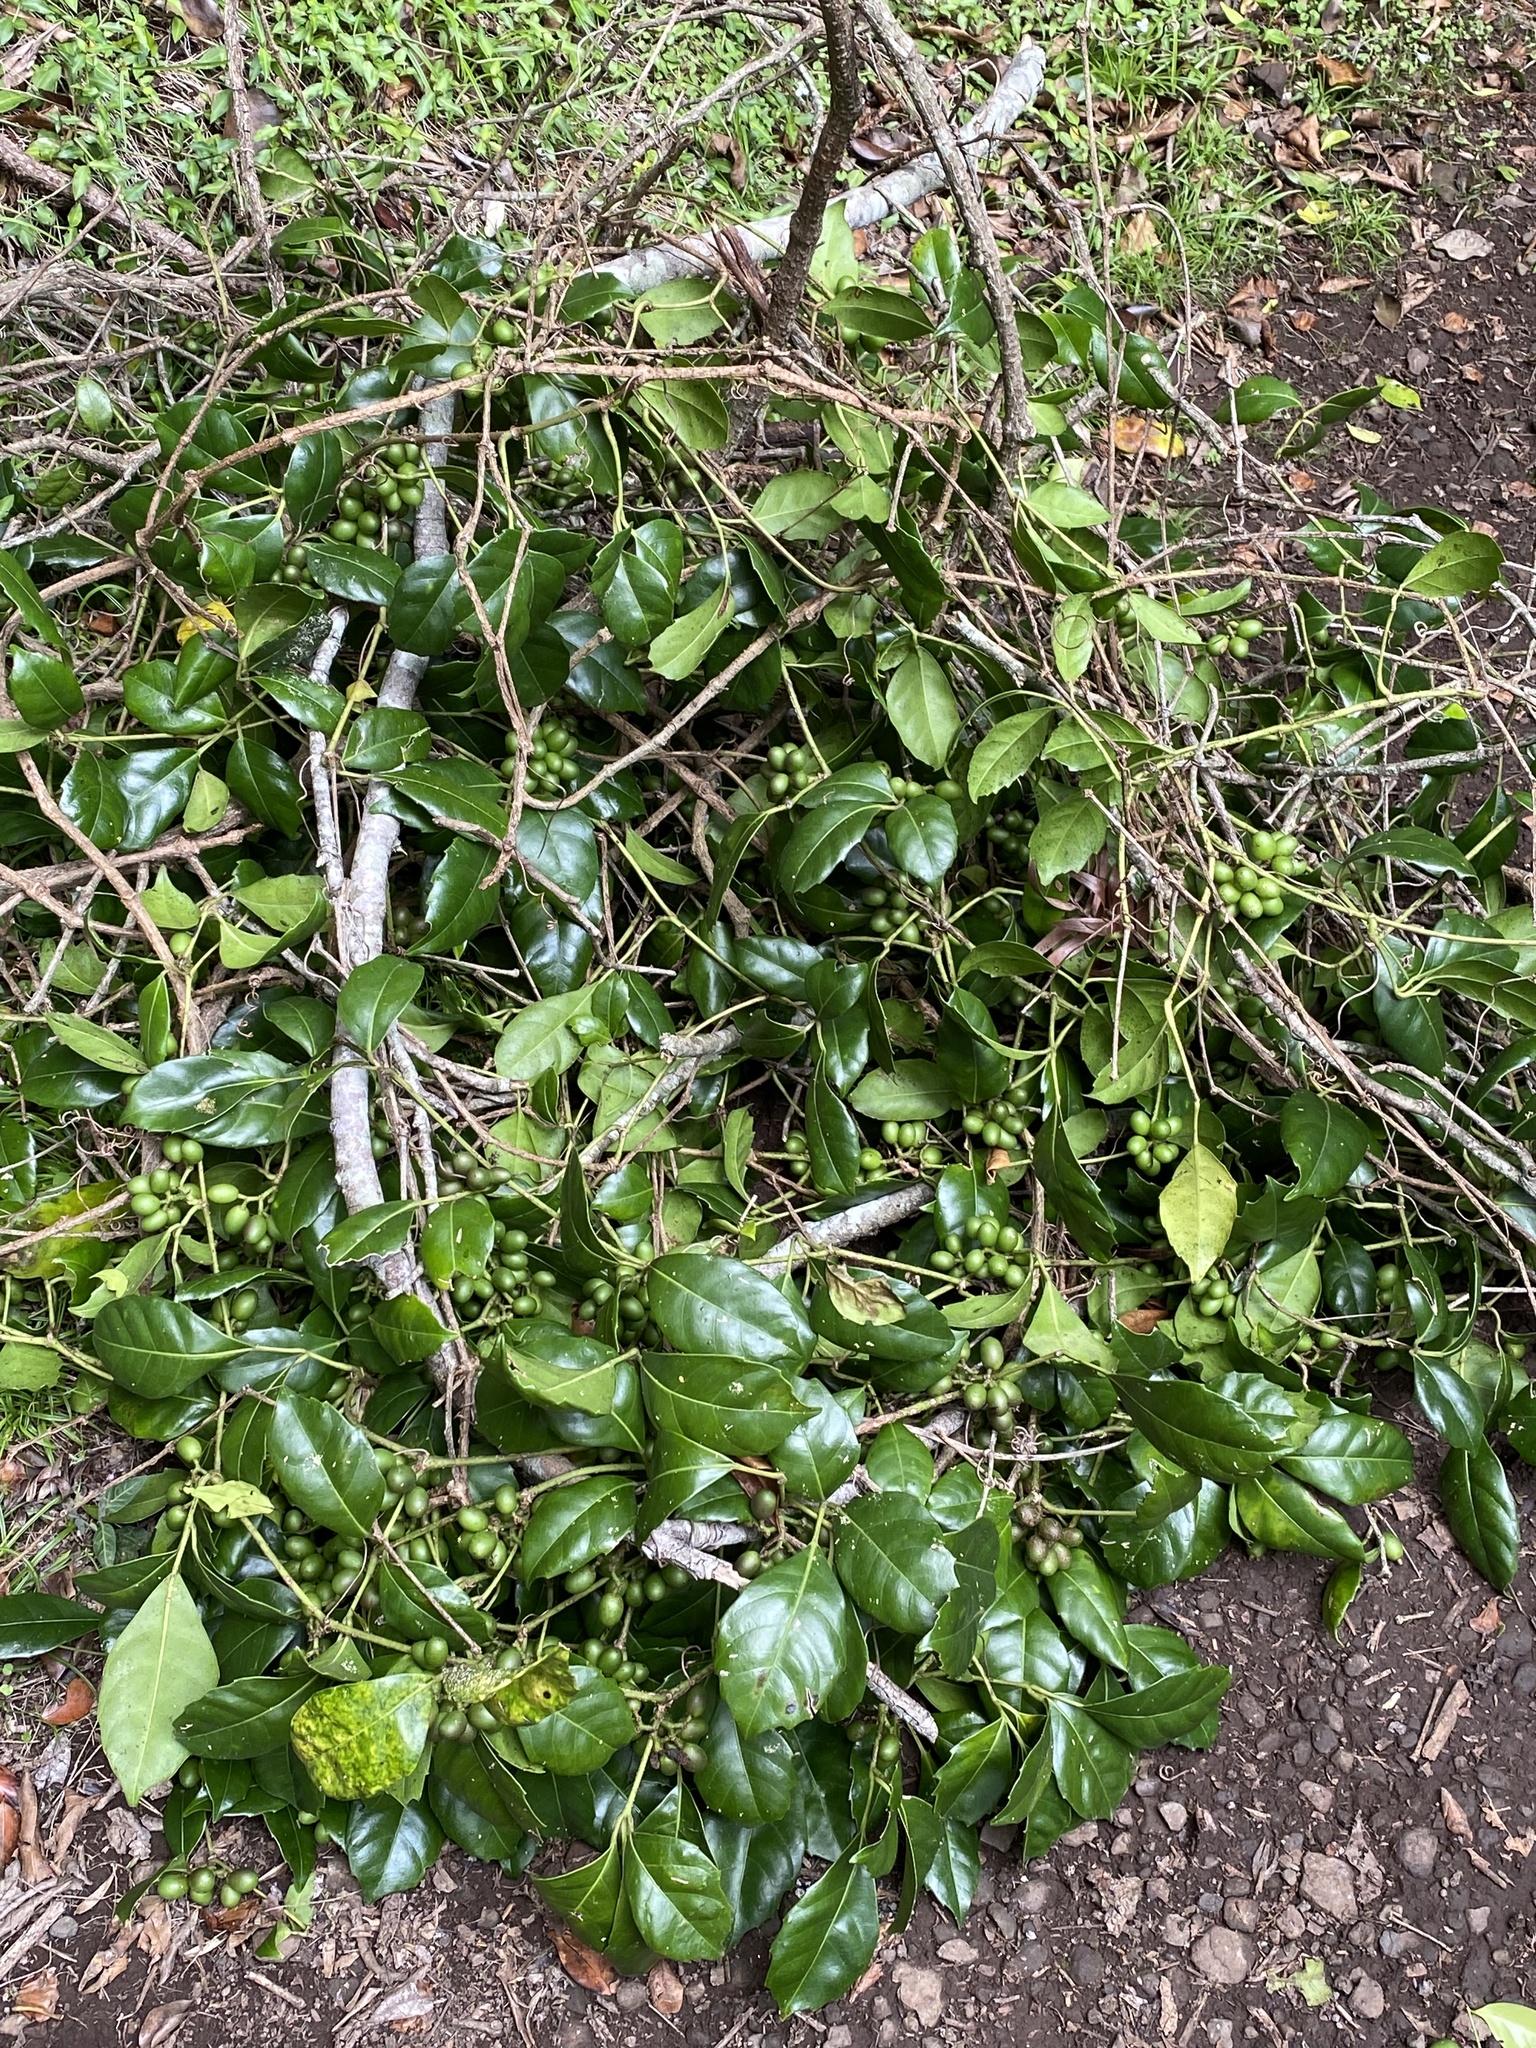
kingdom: Plantae
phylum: Tracheophyta
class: Magnoliopsida
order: Vitales
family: Vitaceae
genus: Tetrastigma
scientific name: Tetrastigma nitens
